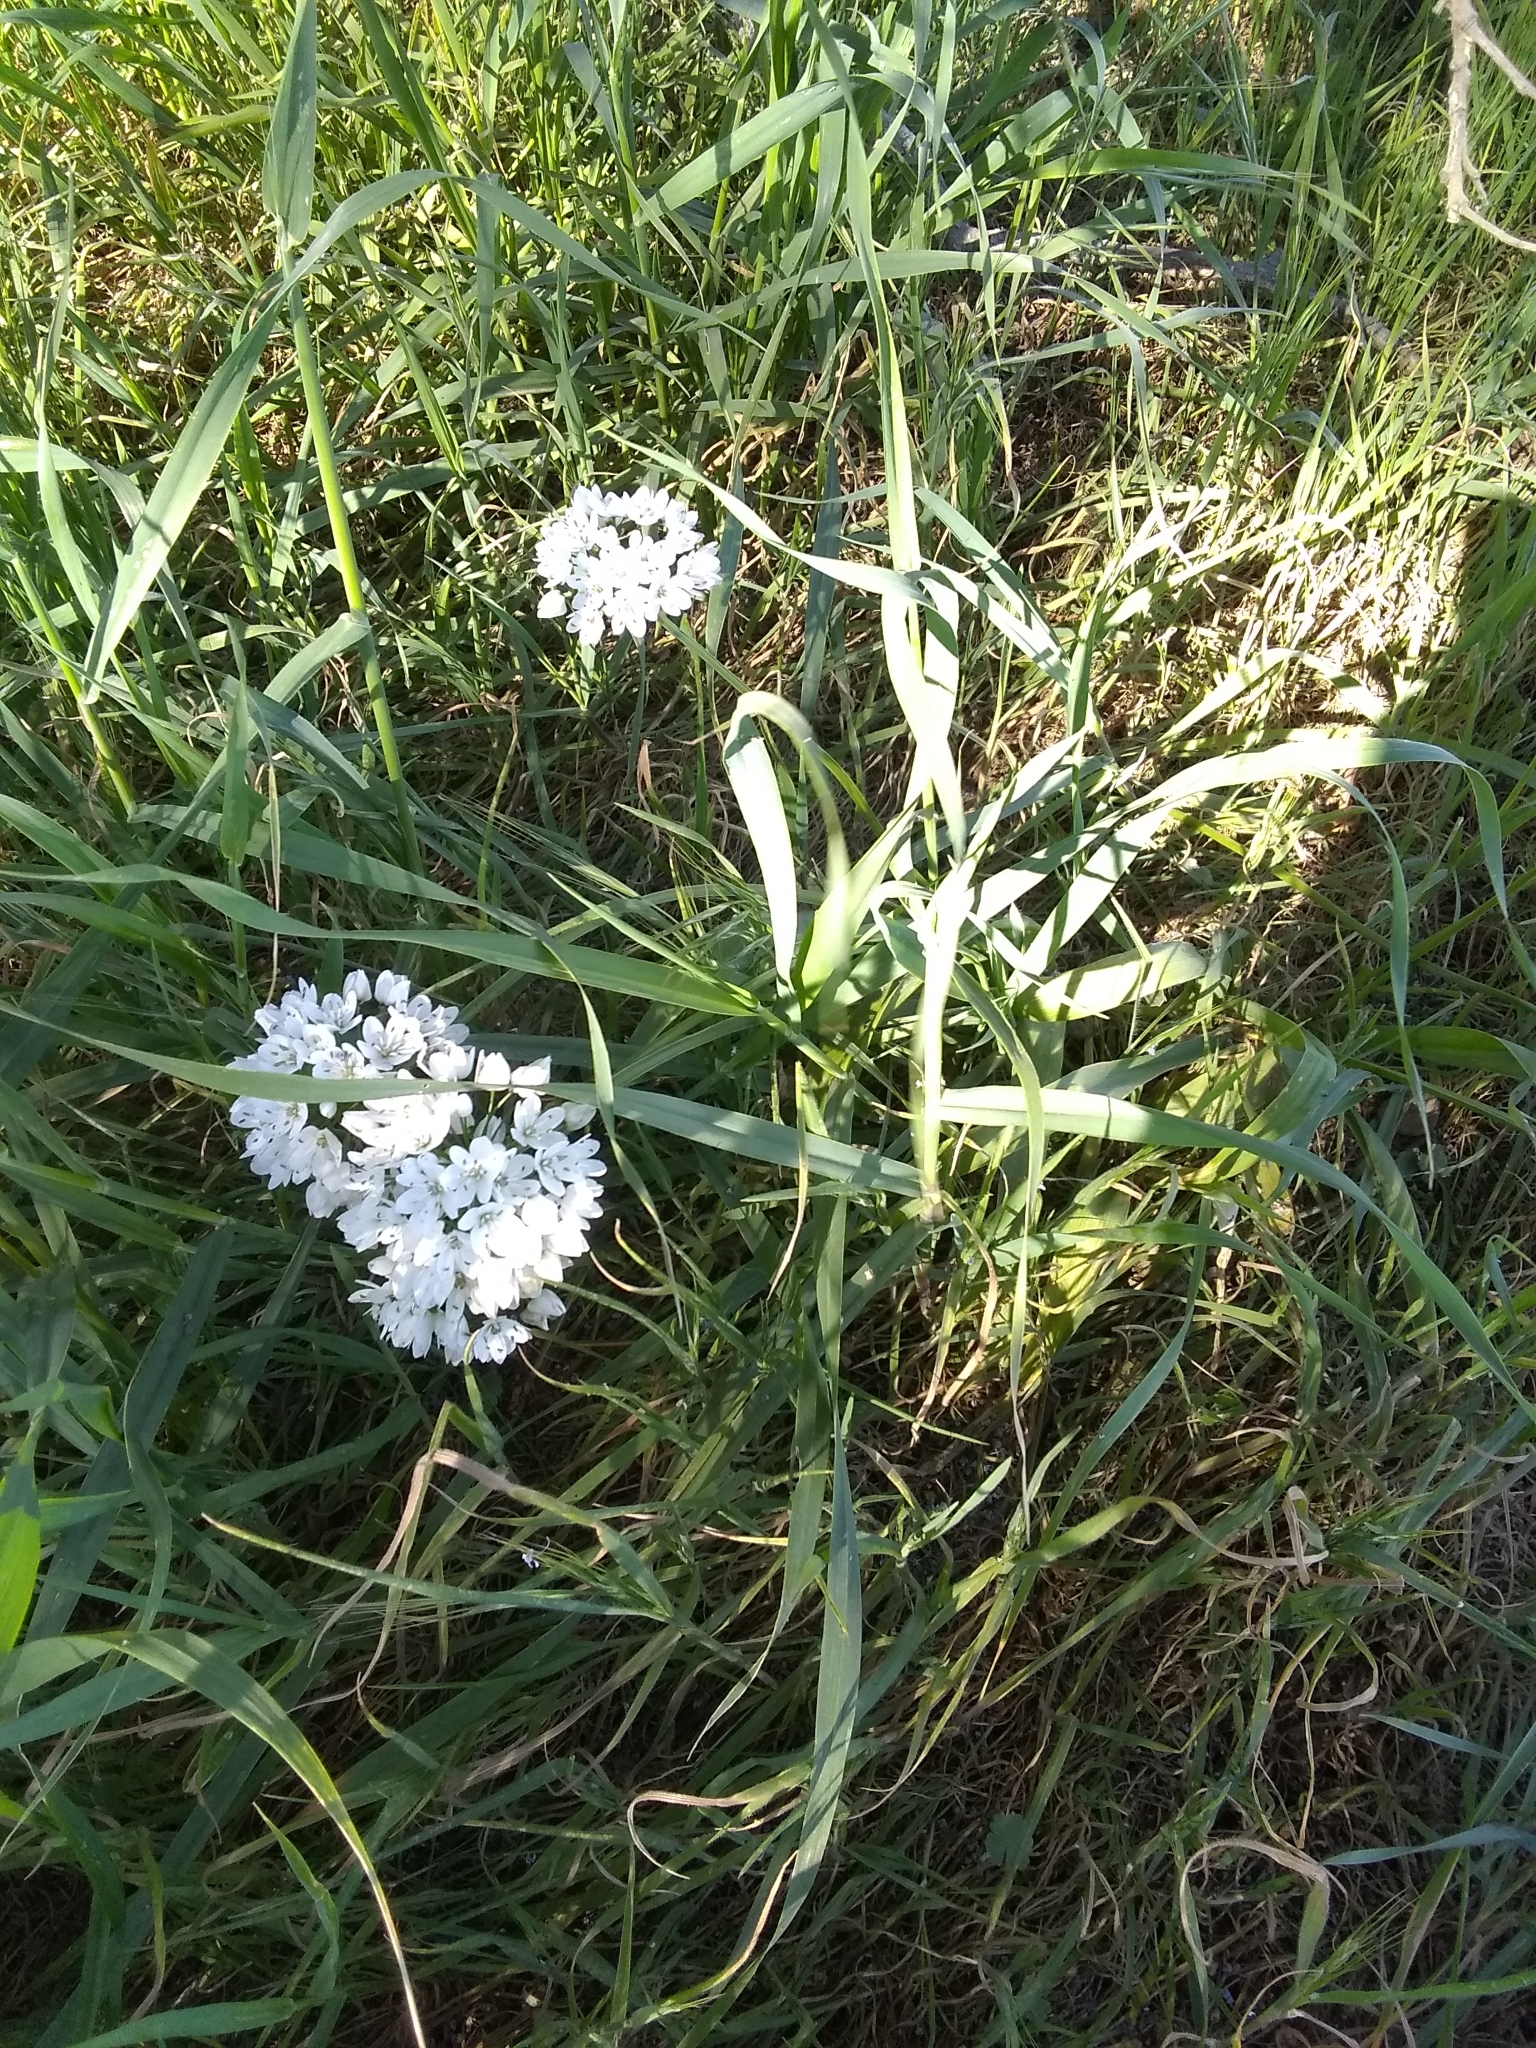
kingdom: Plantae
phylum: Tracheophyta
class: Liliopsida
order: Asparagales
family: Amaryllidaceae
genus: Allium
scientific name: Allium neapolitanum
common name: Neapolitan garlic
